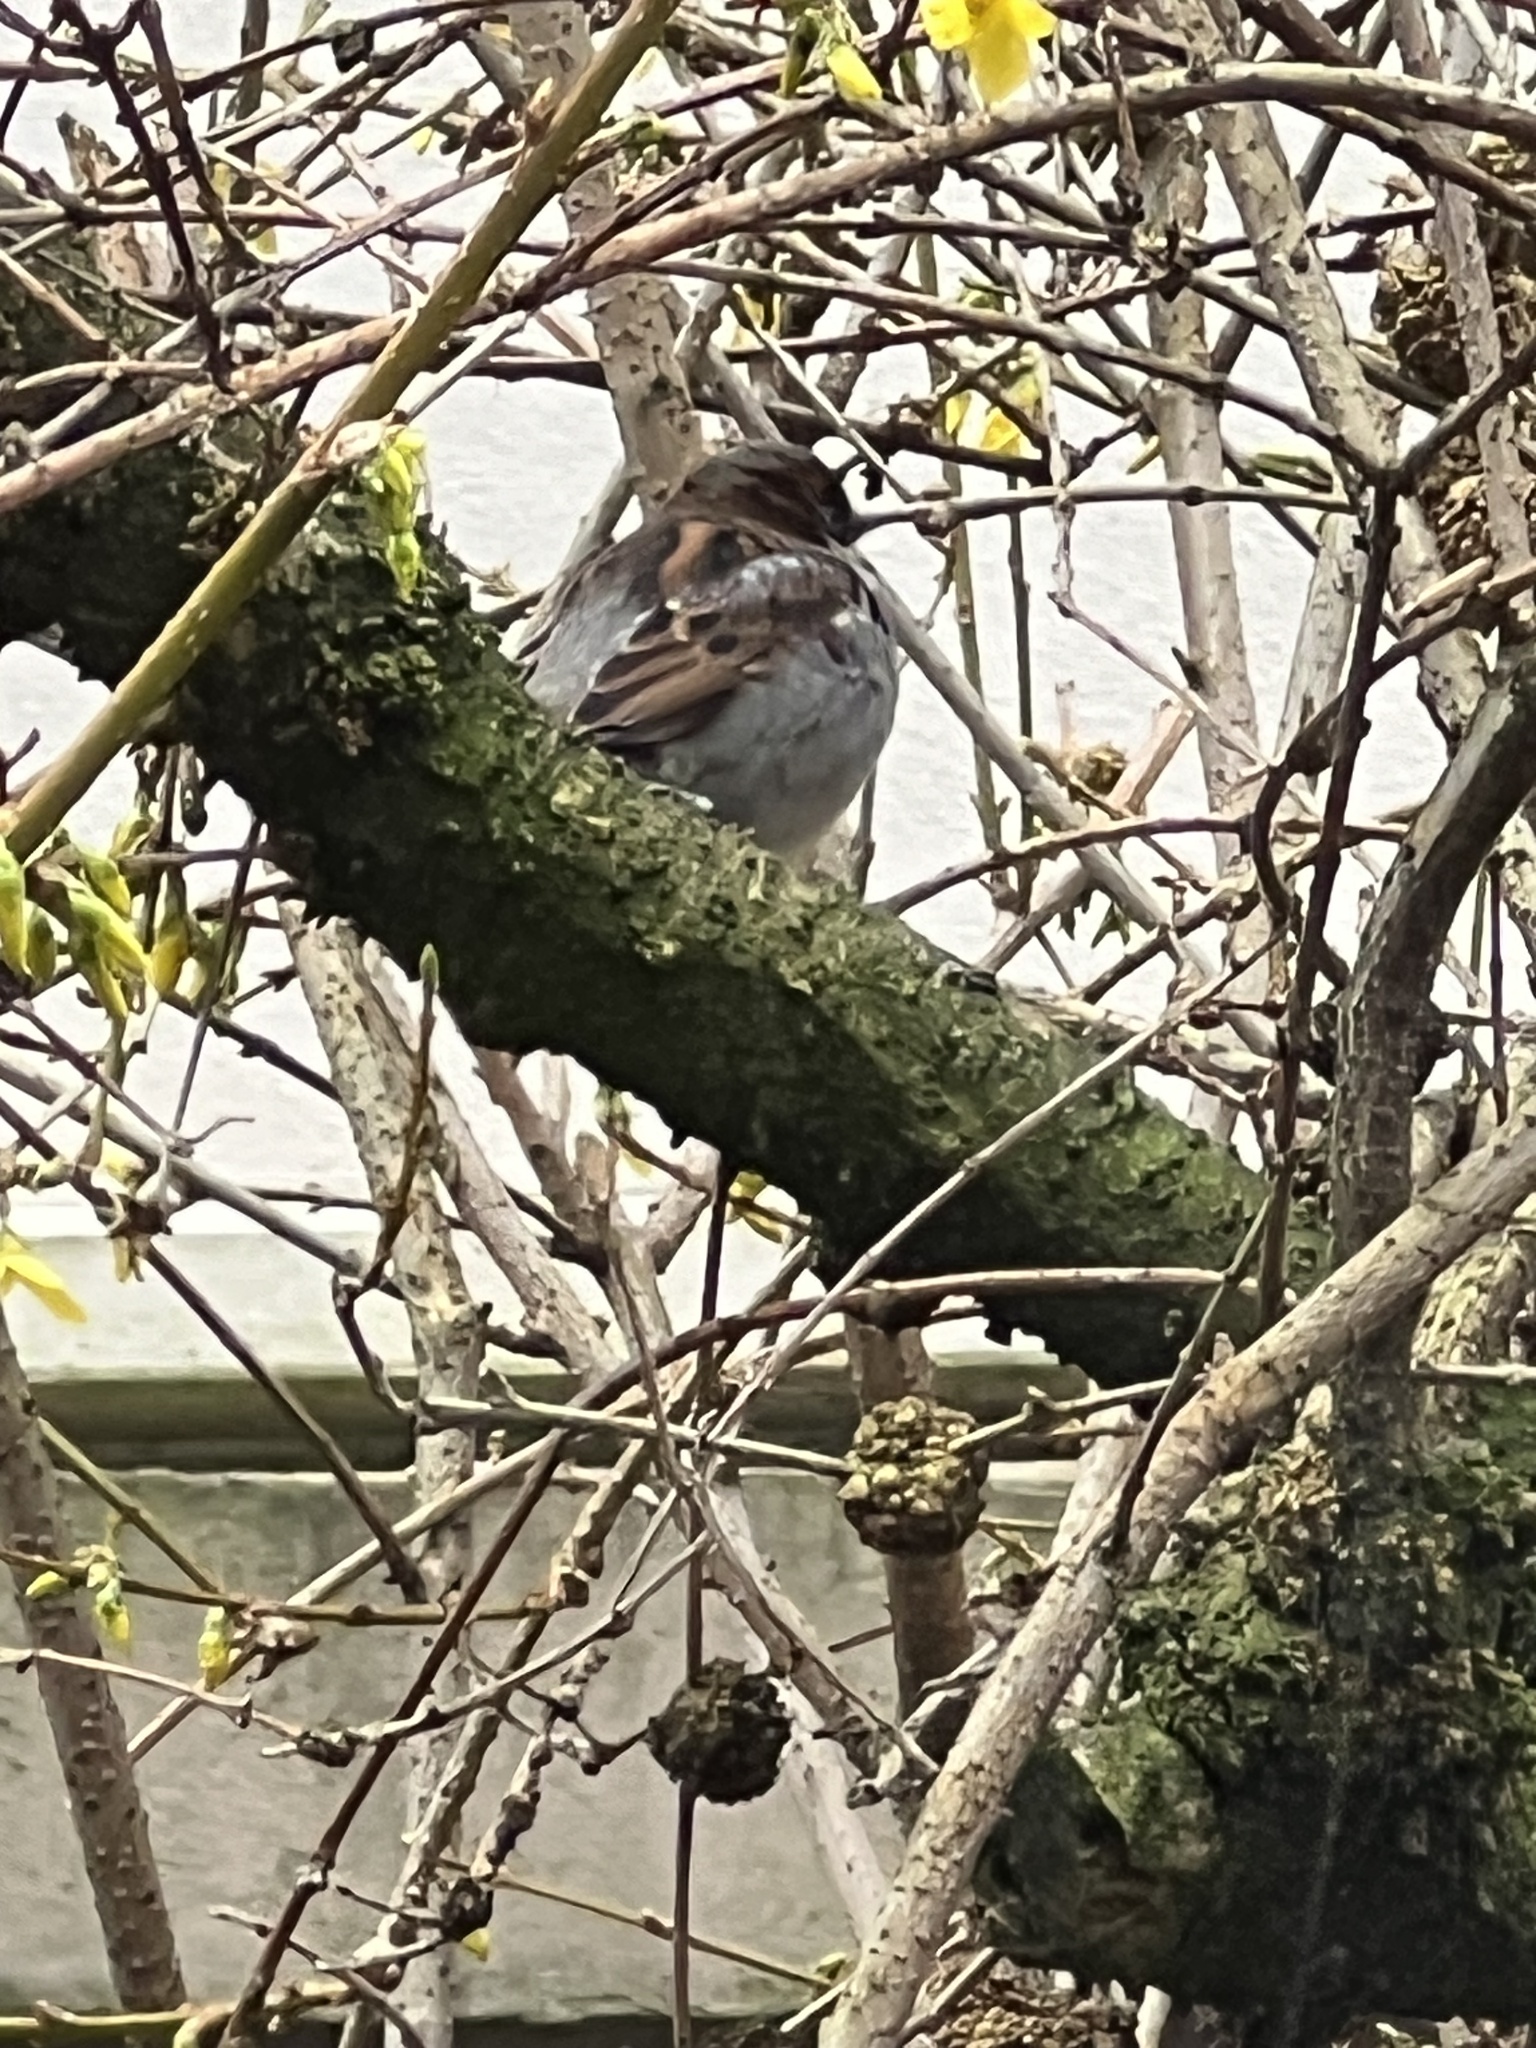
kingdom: Animalia
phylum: Chordata
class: Aves
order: Passeriformes
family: Passeridae
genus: Passer
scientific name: Passer domesticus
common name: House sparrow
